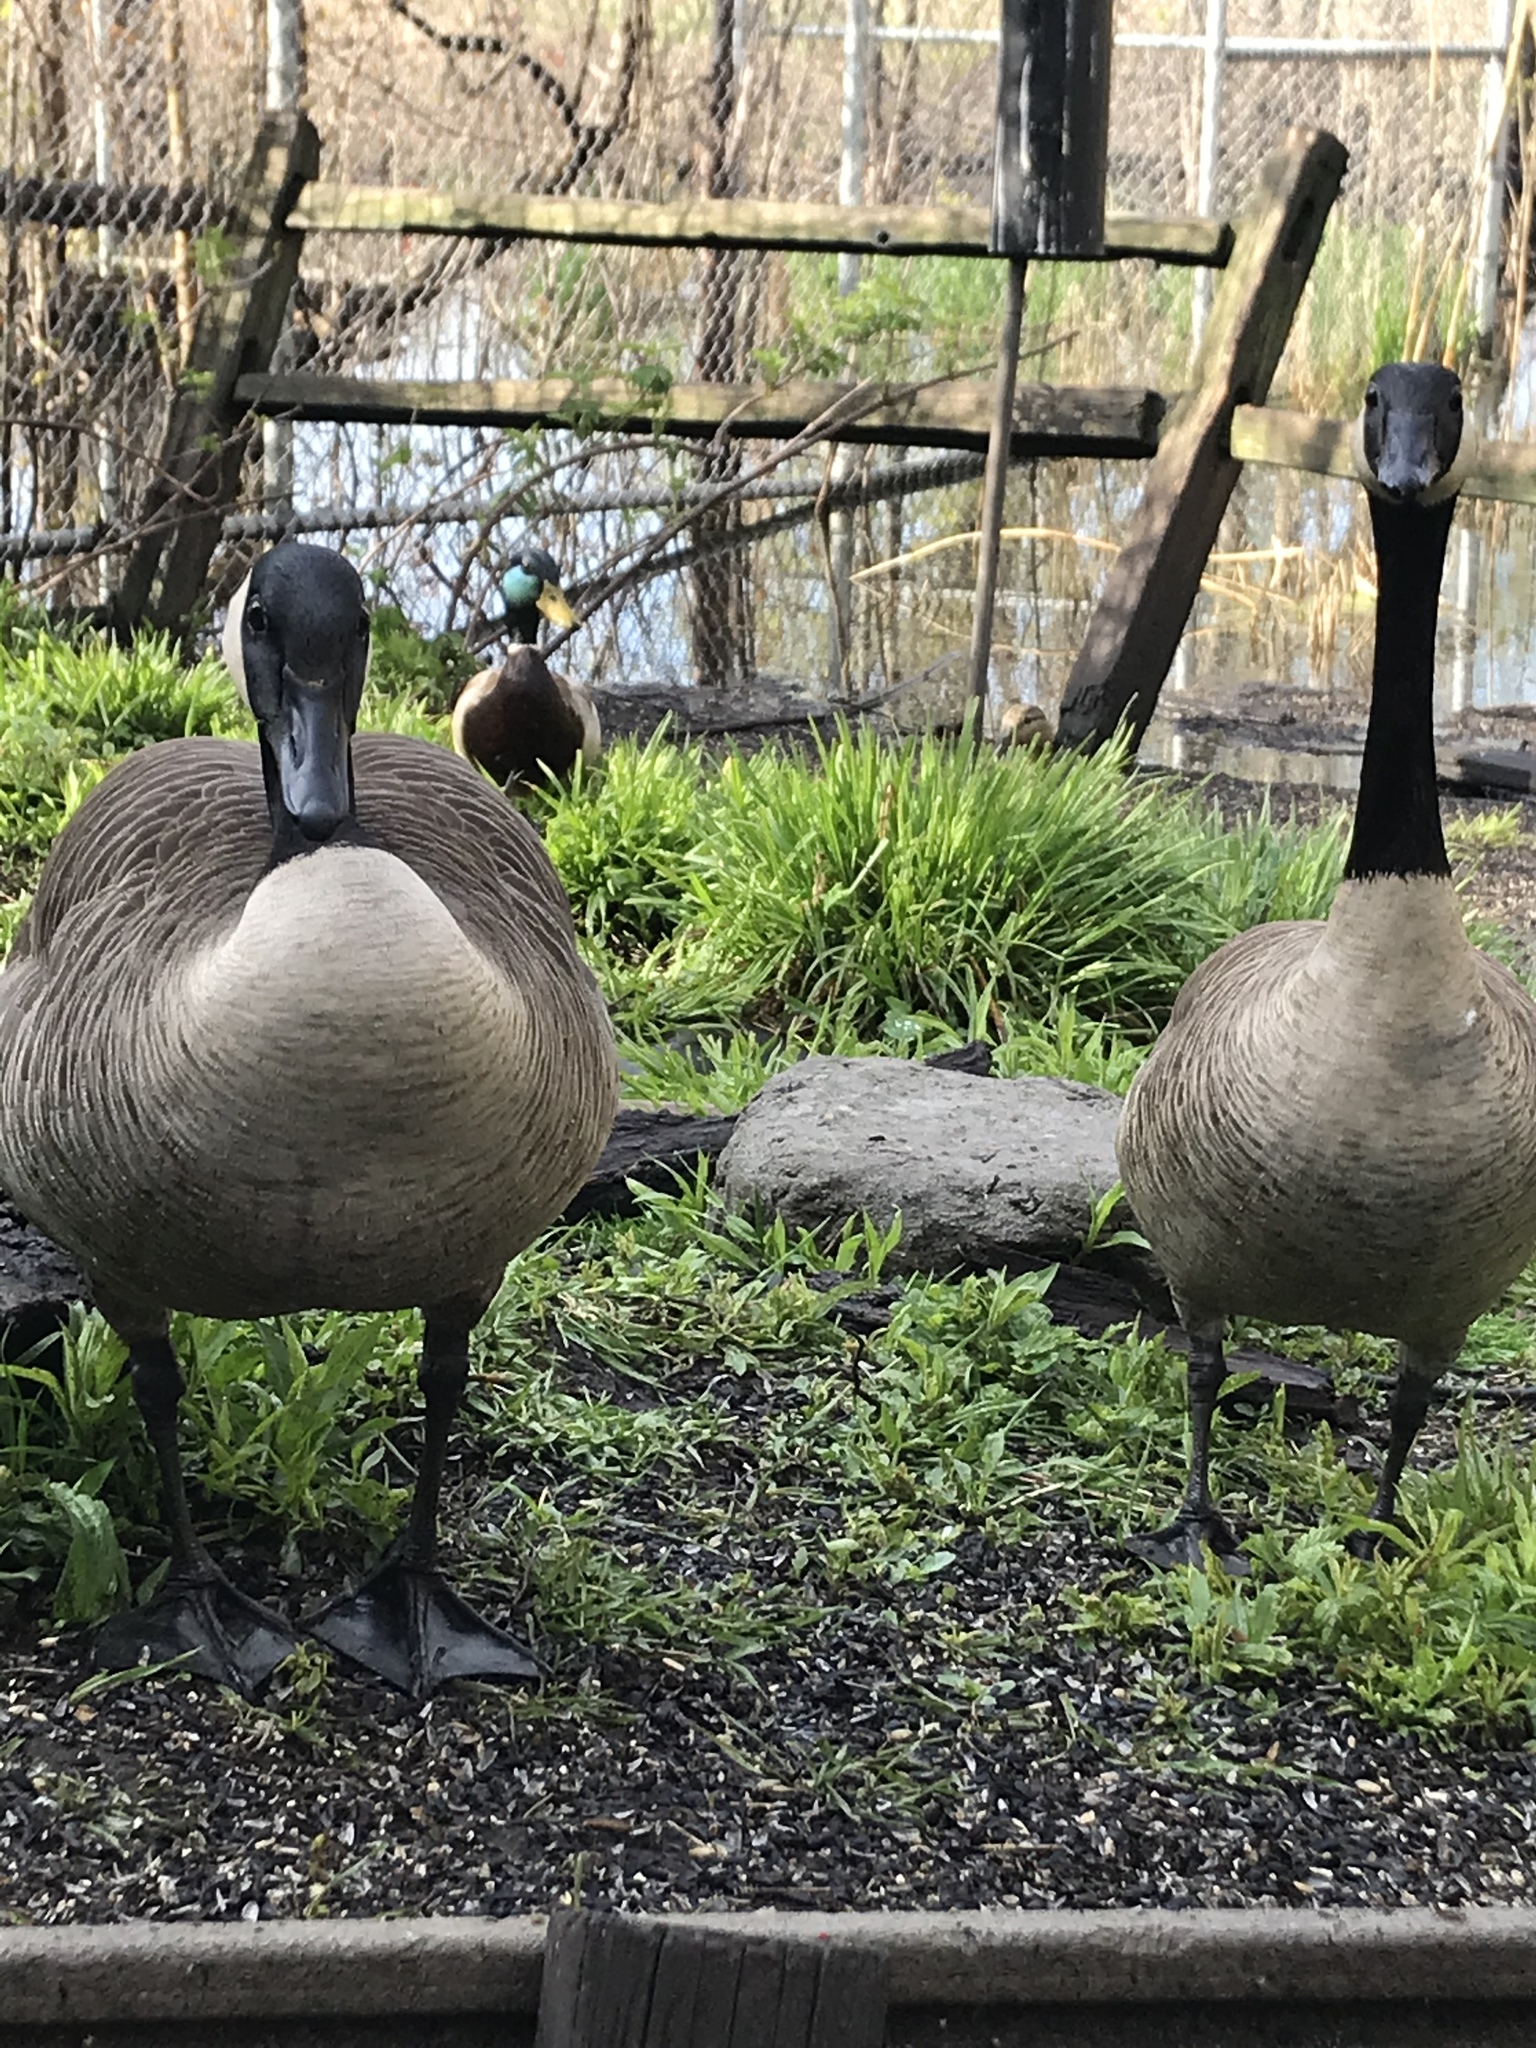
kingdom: Animalia
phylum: Chordata
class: Aves
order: Anseriformes
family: Anatidae
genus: Branta
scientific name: Branta canadensis
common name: Canada goose
